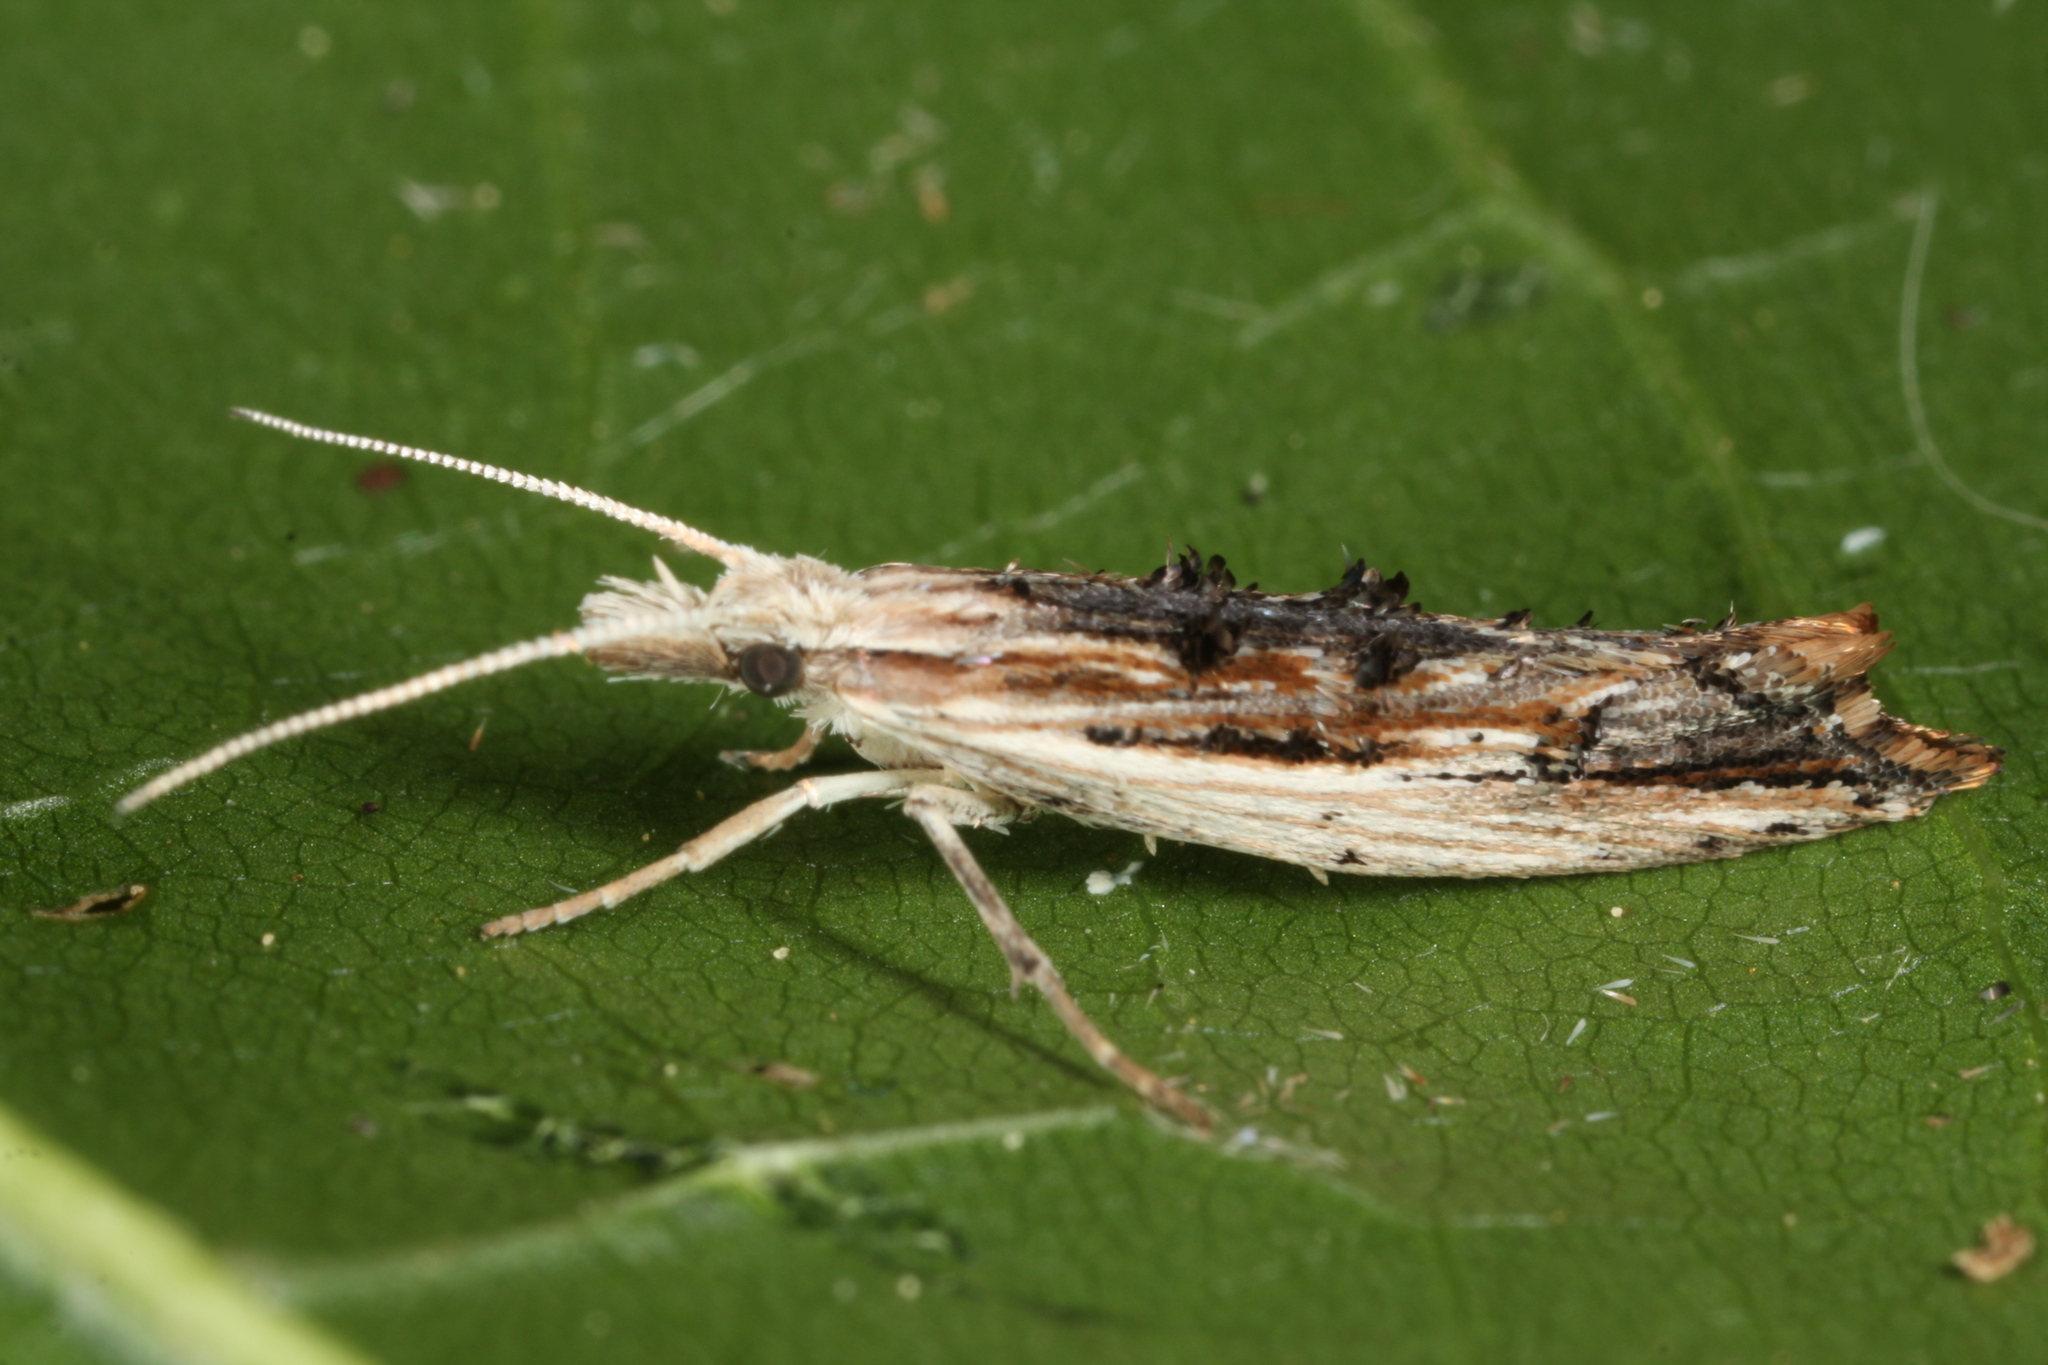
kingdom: Animalia
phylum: Arthropoda
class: Insecta
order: Lepidoptera
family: Ypsolophidae
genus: Ypsolopha
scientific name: Ypsolopha scabrella
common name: Wainscot smudge
